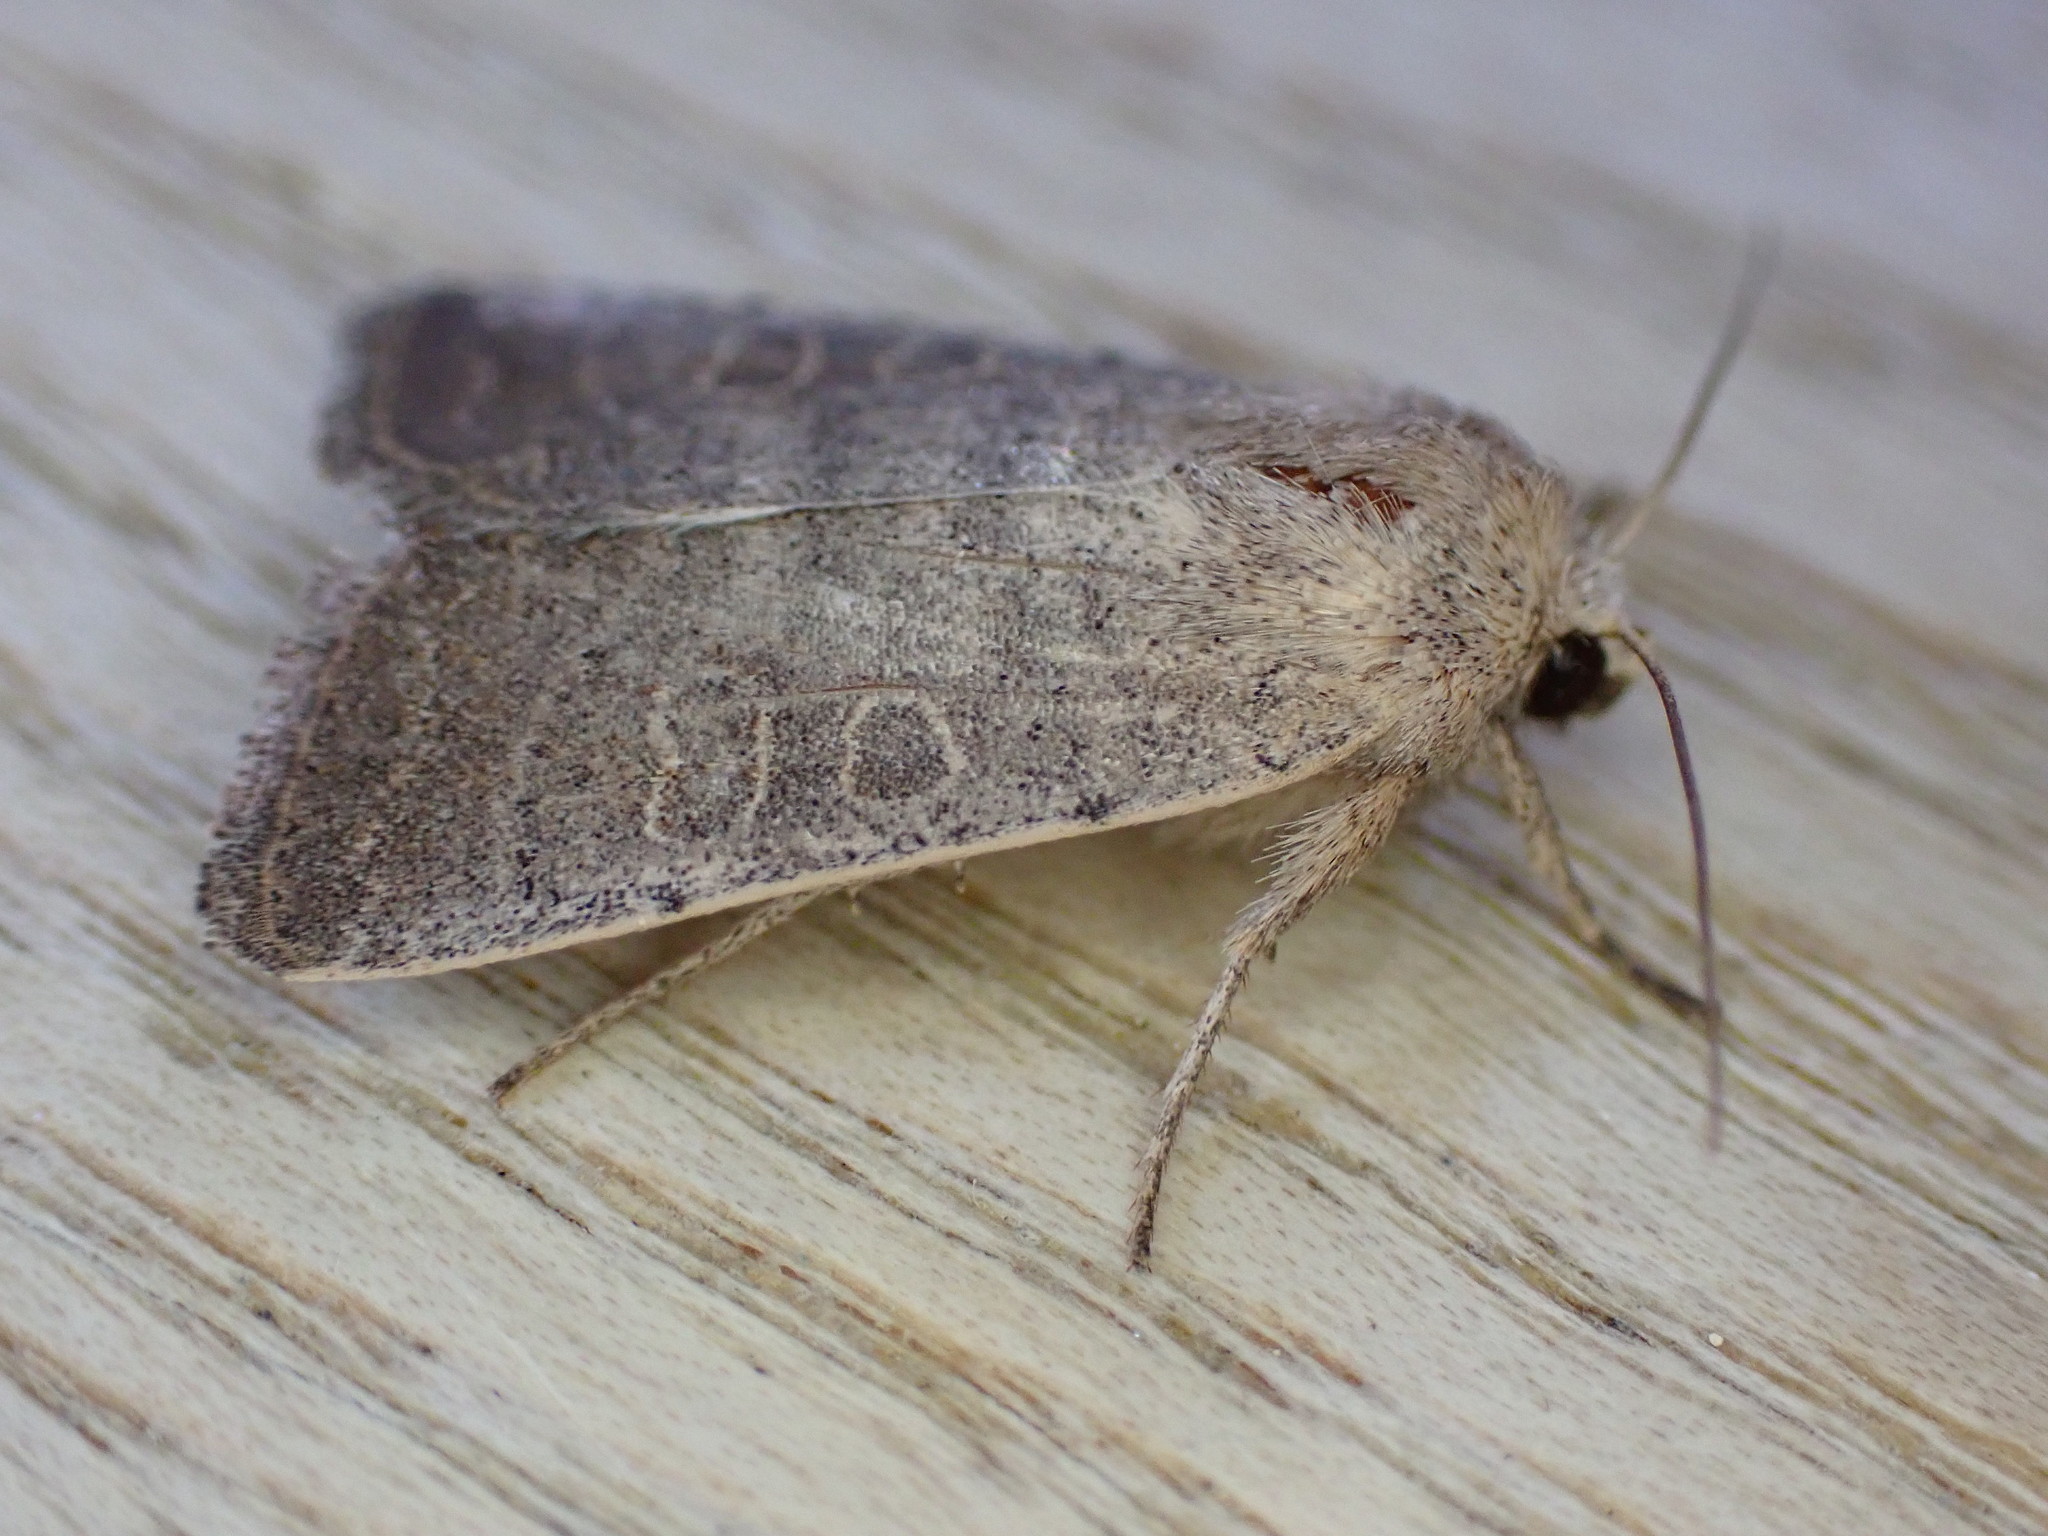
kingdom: Animalia
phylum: Arthropoda
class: Insecta
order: Lepidoptera
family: Noctuidae
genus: Hoplodrina
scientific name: Hoplodrina ambigua
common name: Vine's rustic
